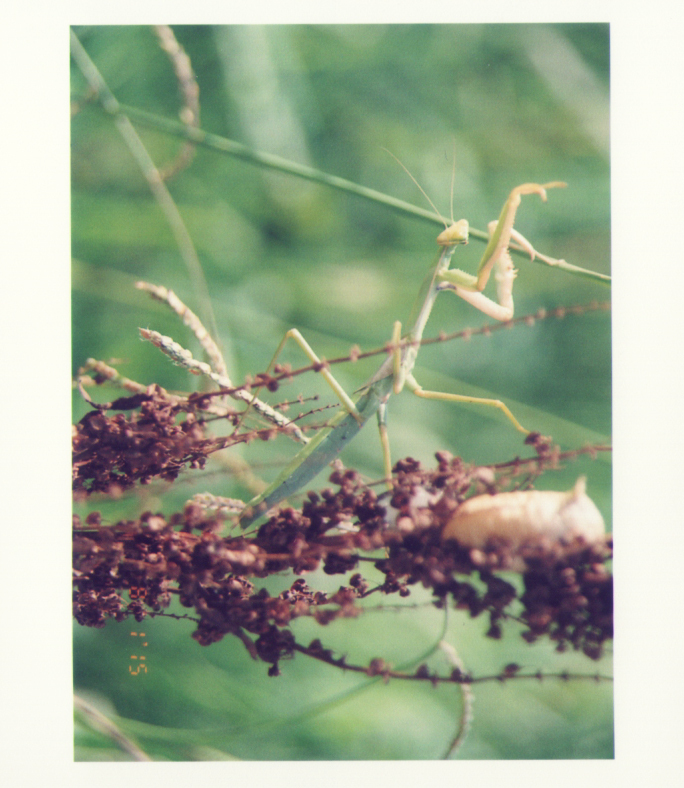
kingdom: Animalia
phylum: Arthropoda
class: Insecta
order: Mantodea
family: Coptopterygidae
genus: Coptopteryx
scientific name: Coptopteryx argentina
